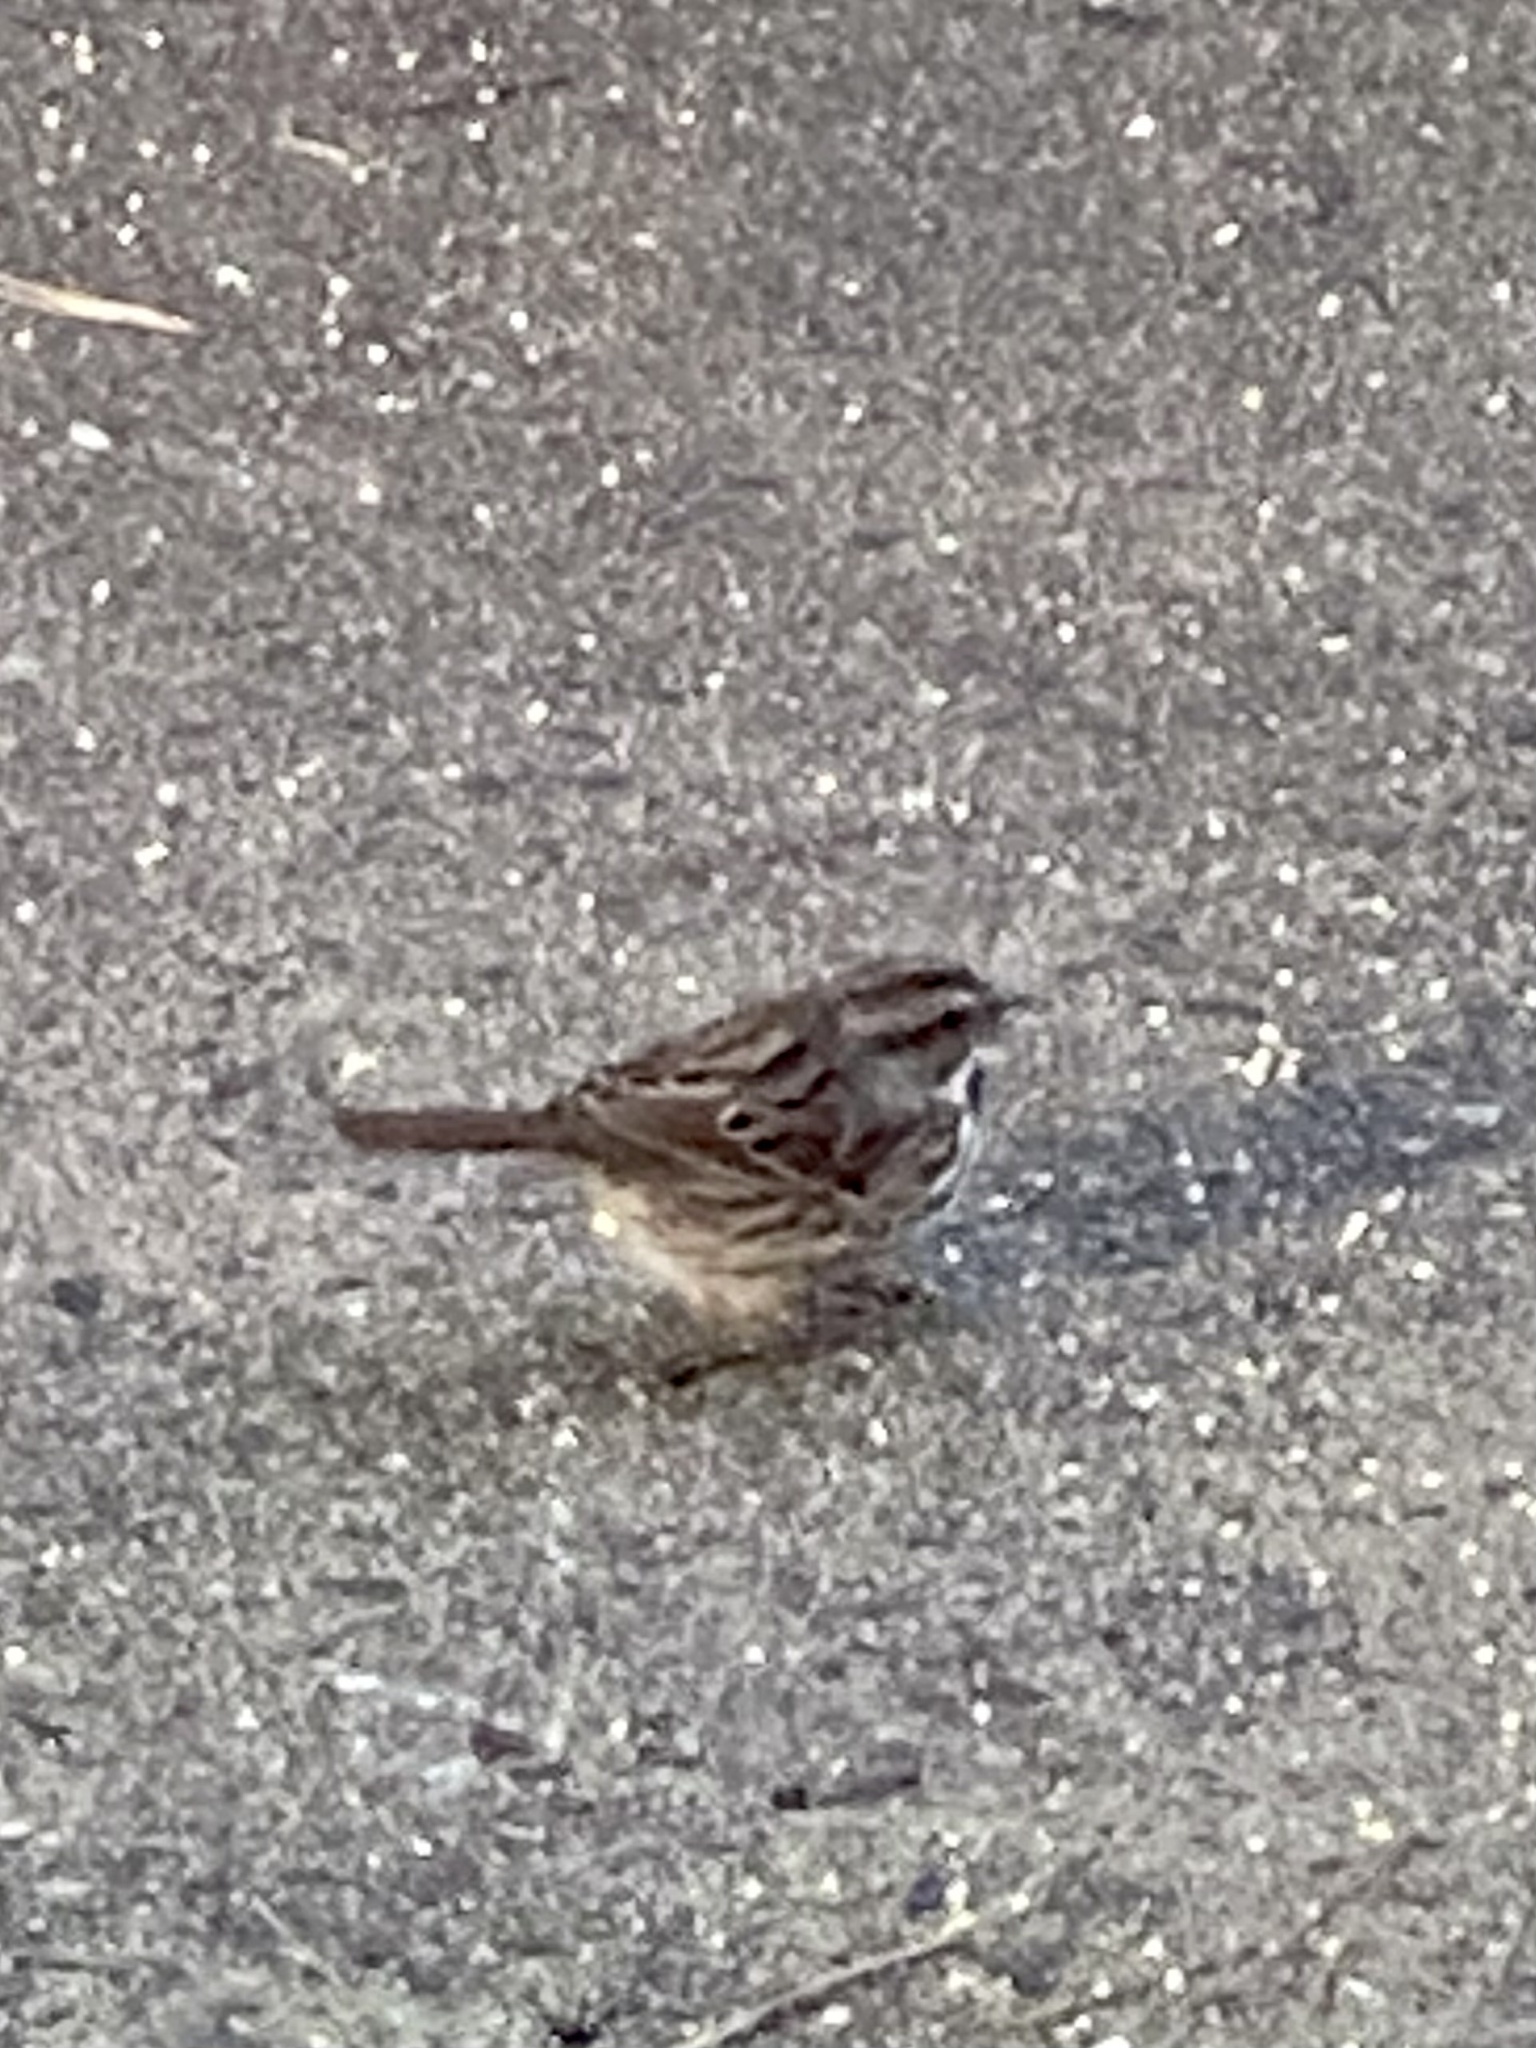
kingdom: Animalia
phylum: Chordata
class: Aves
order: Passeriformes
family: Passerellidae
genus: Melospiza
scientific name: Melospiza melodia
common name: Song sparrow
